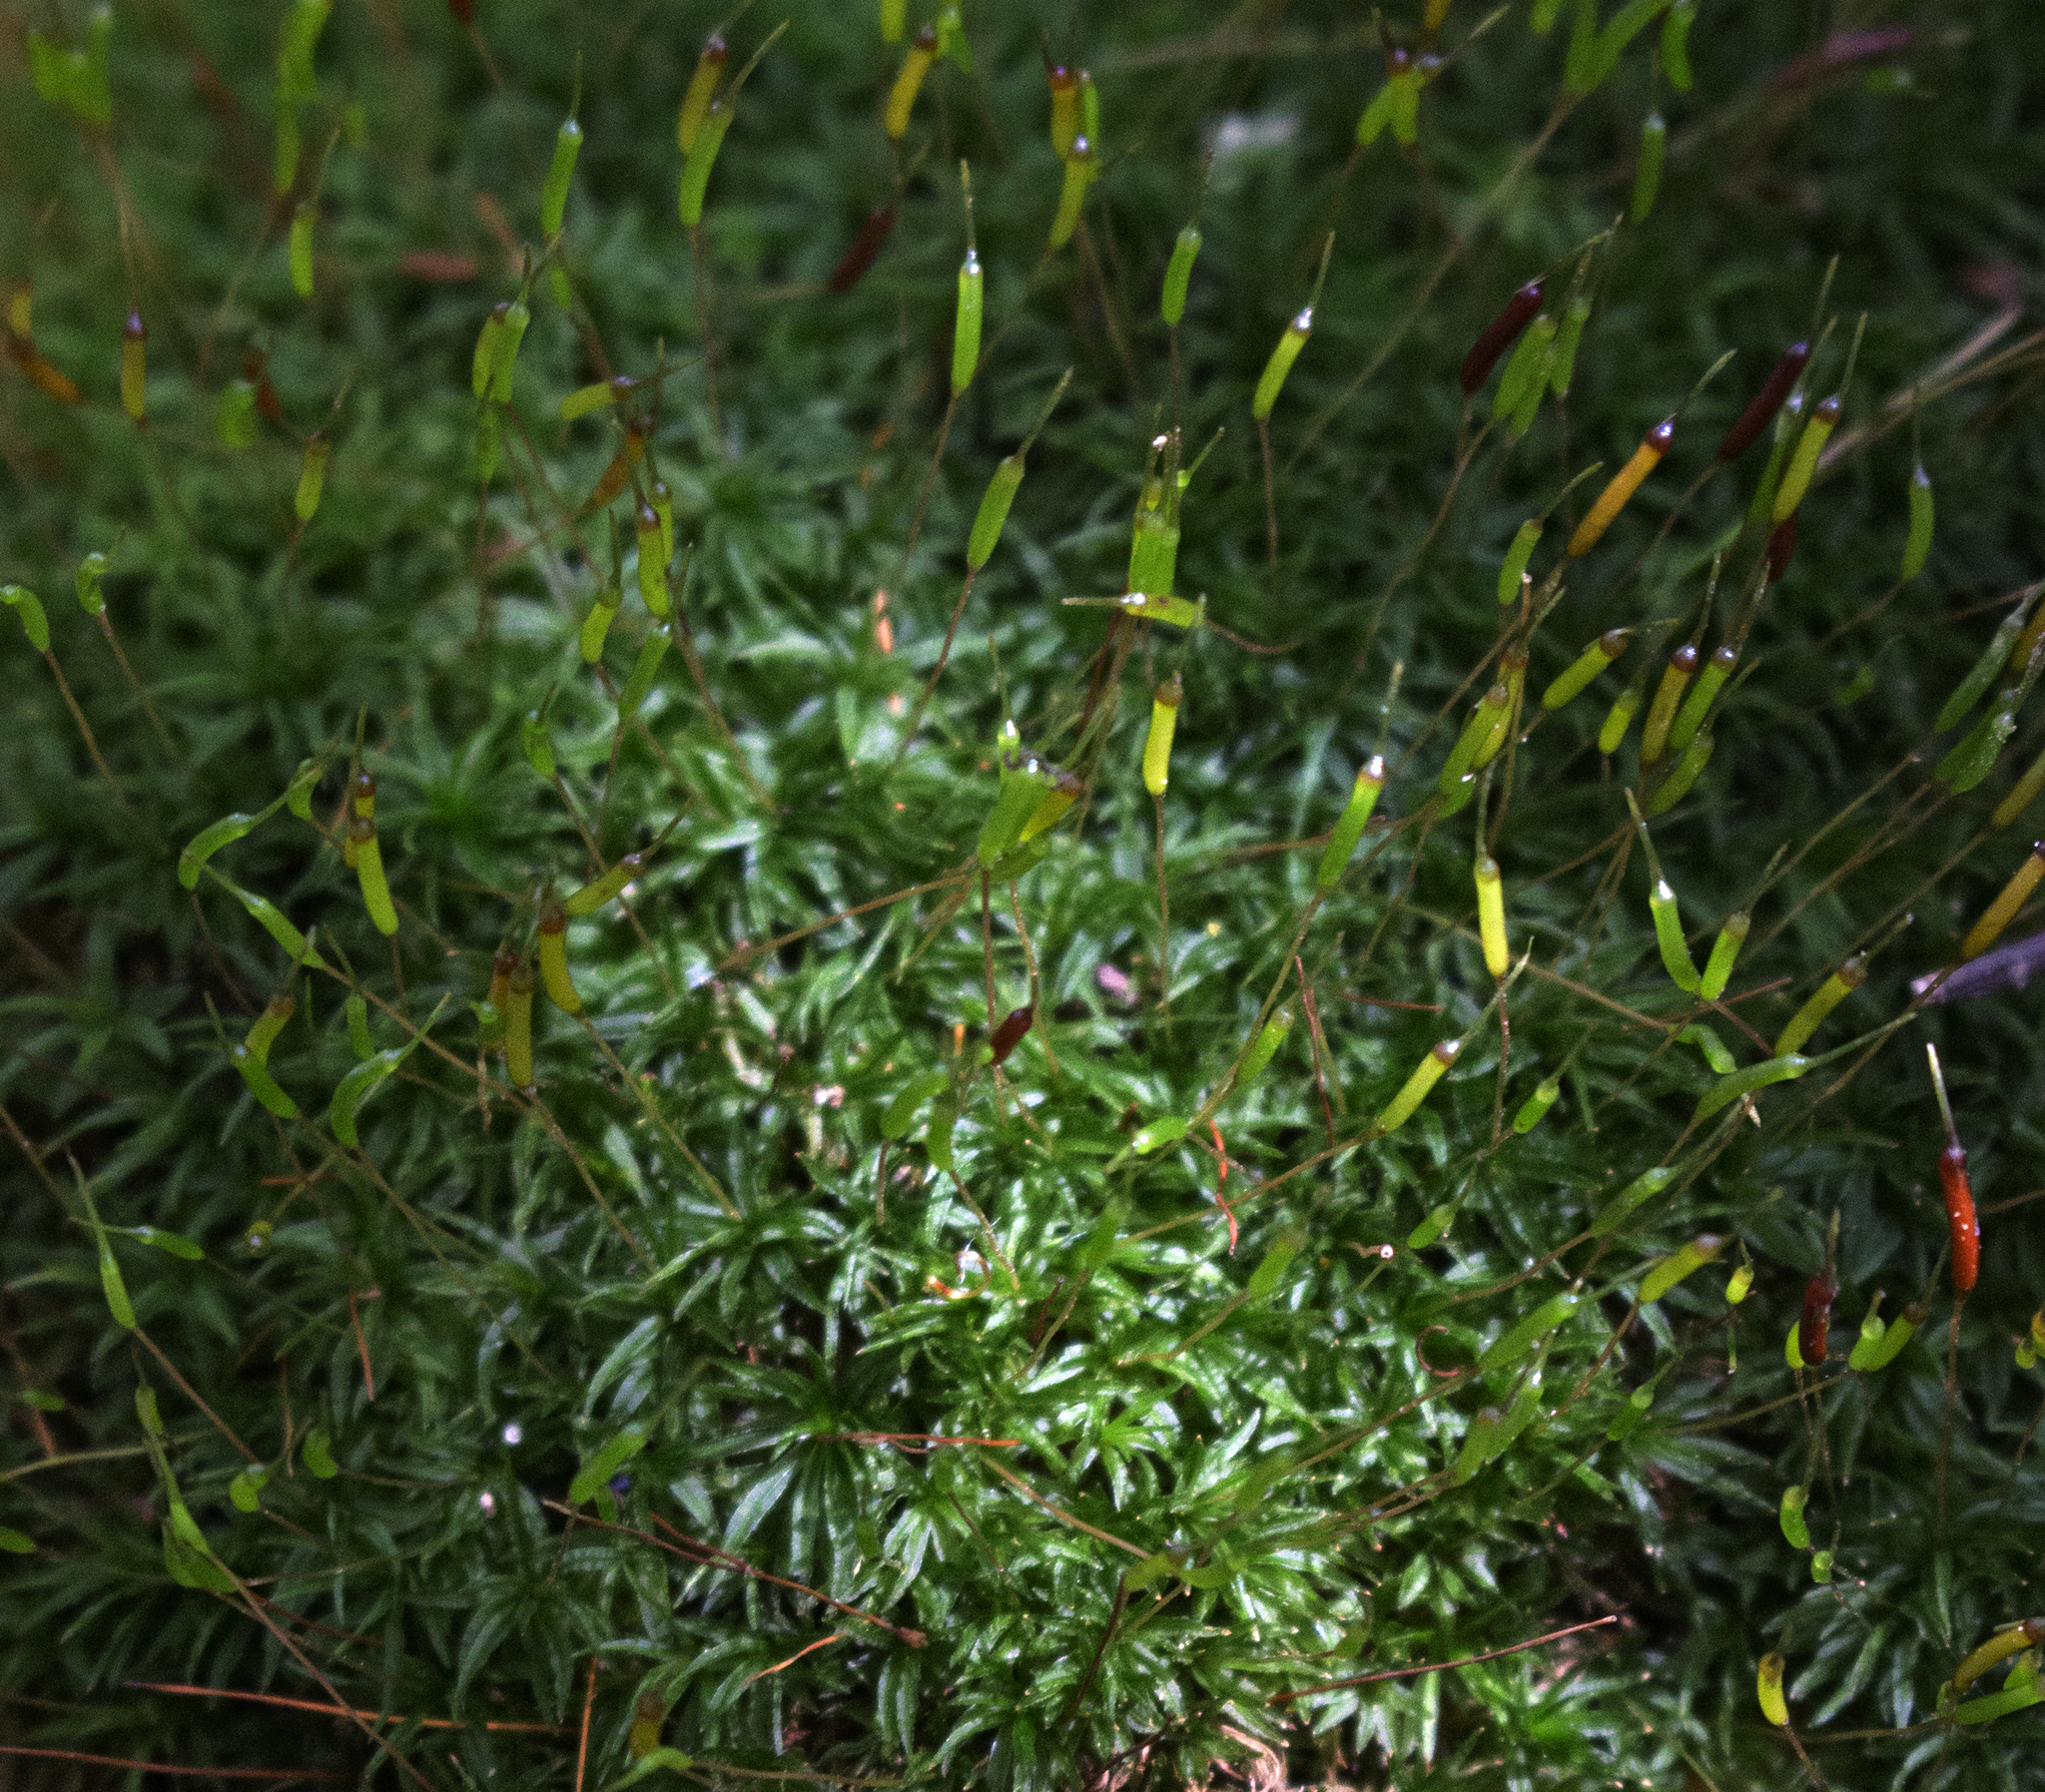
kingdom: Plantae
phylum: Bryophyta
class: Polytrichopsida
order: Polytrichales
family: Polytrichaceae
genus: Atrichum
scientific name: Atrichum angustatum
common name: Lesser smoothcap
